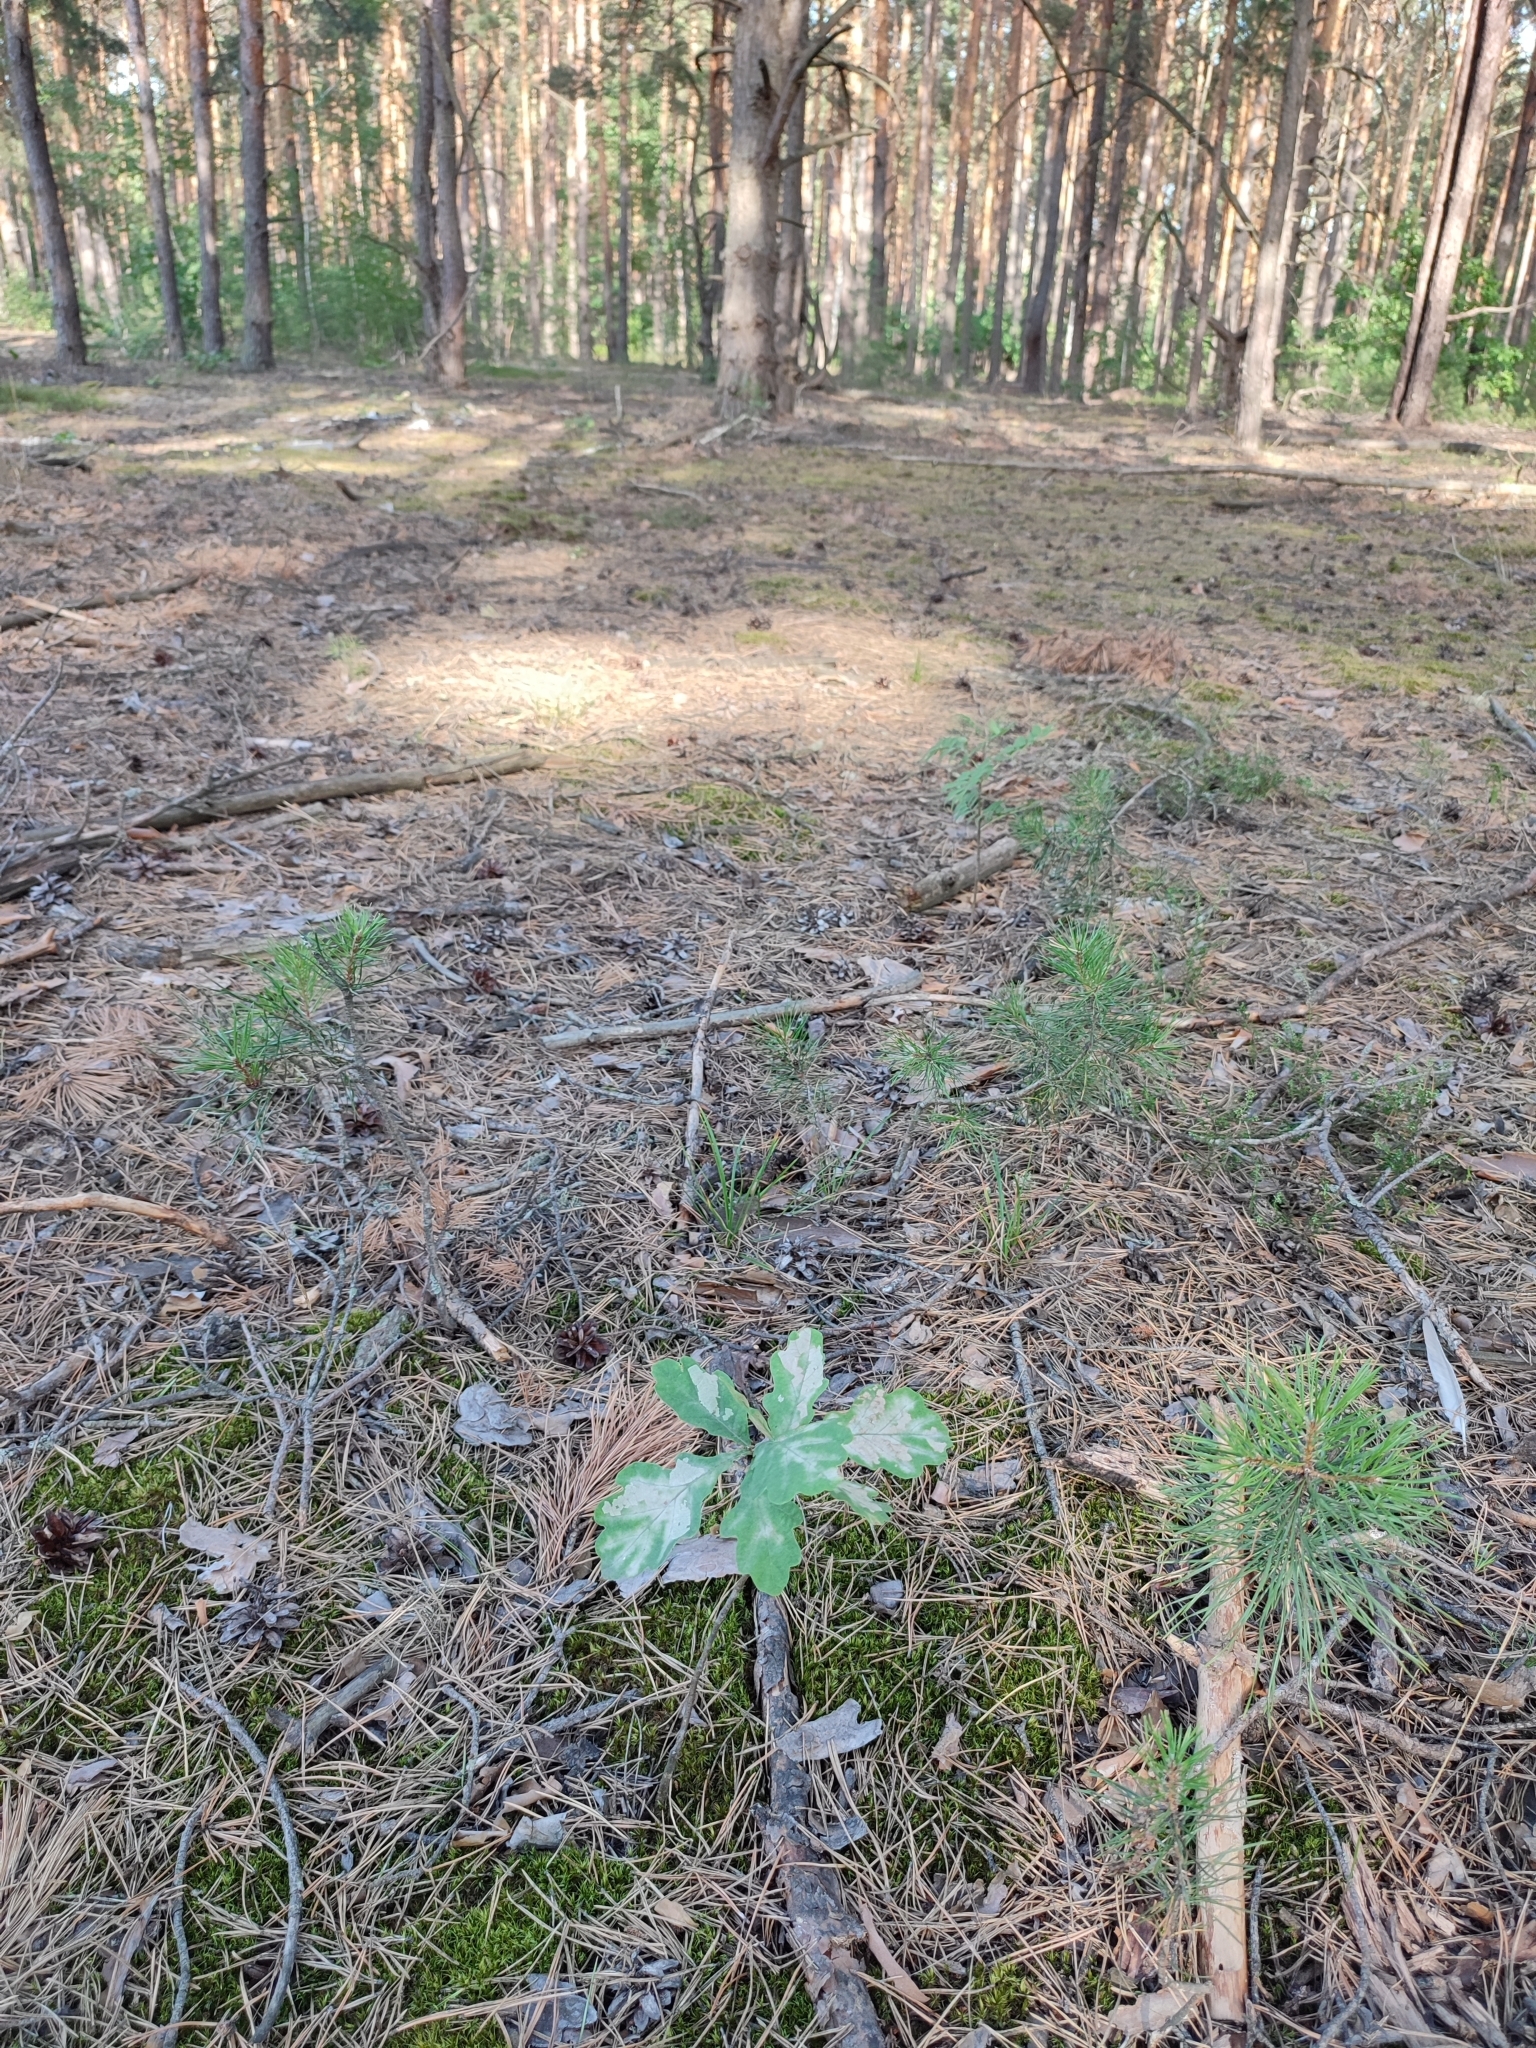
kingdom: Plantae
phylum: Tracheophyta
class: Magnoliopsida
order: Fagales
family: Fagaceae
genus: Quercus
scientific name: Quercus robur
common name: Pedunculate oak
